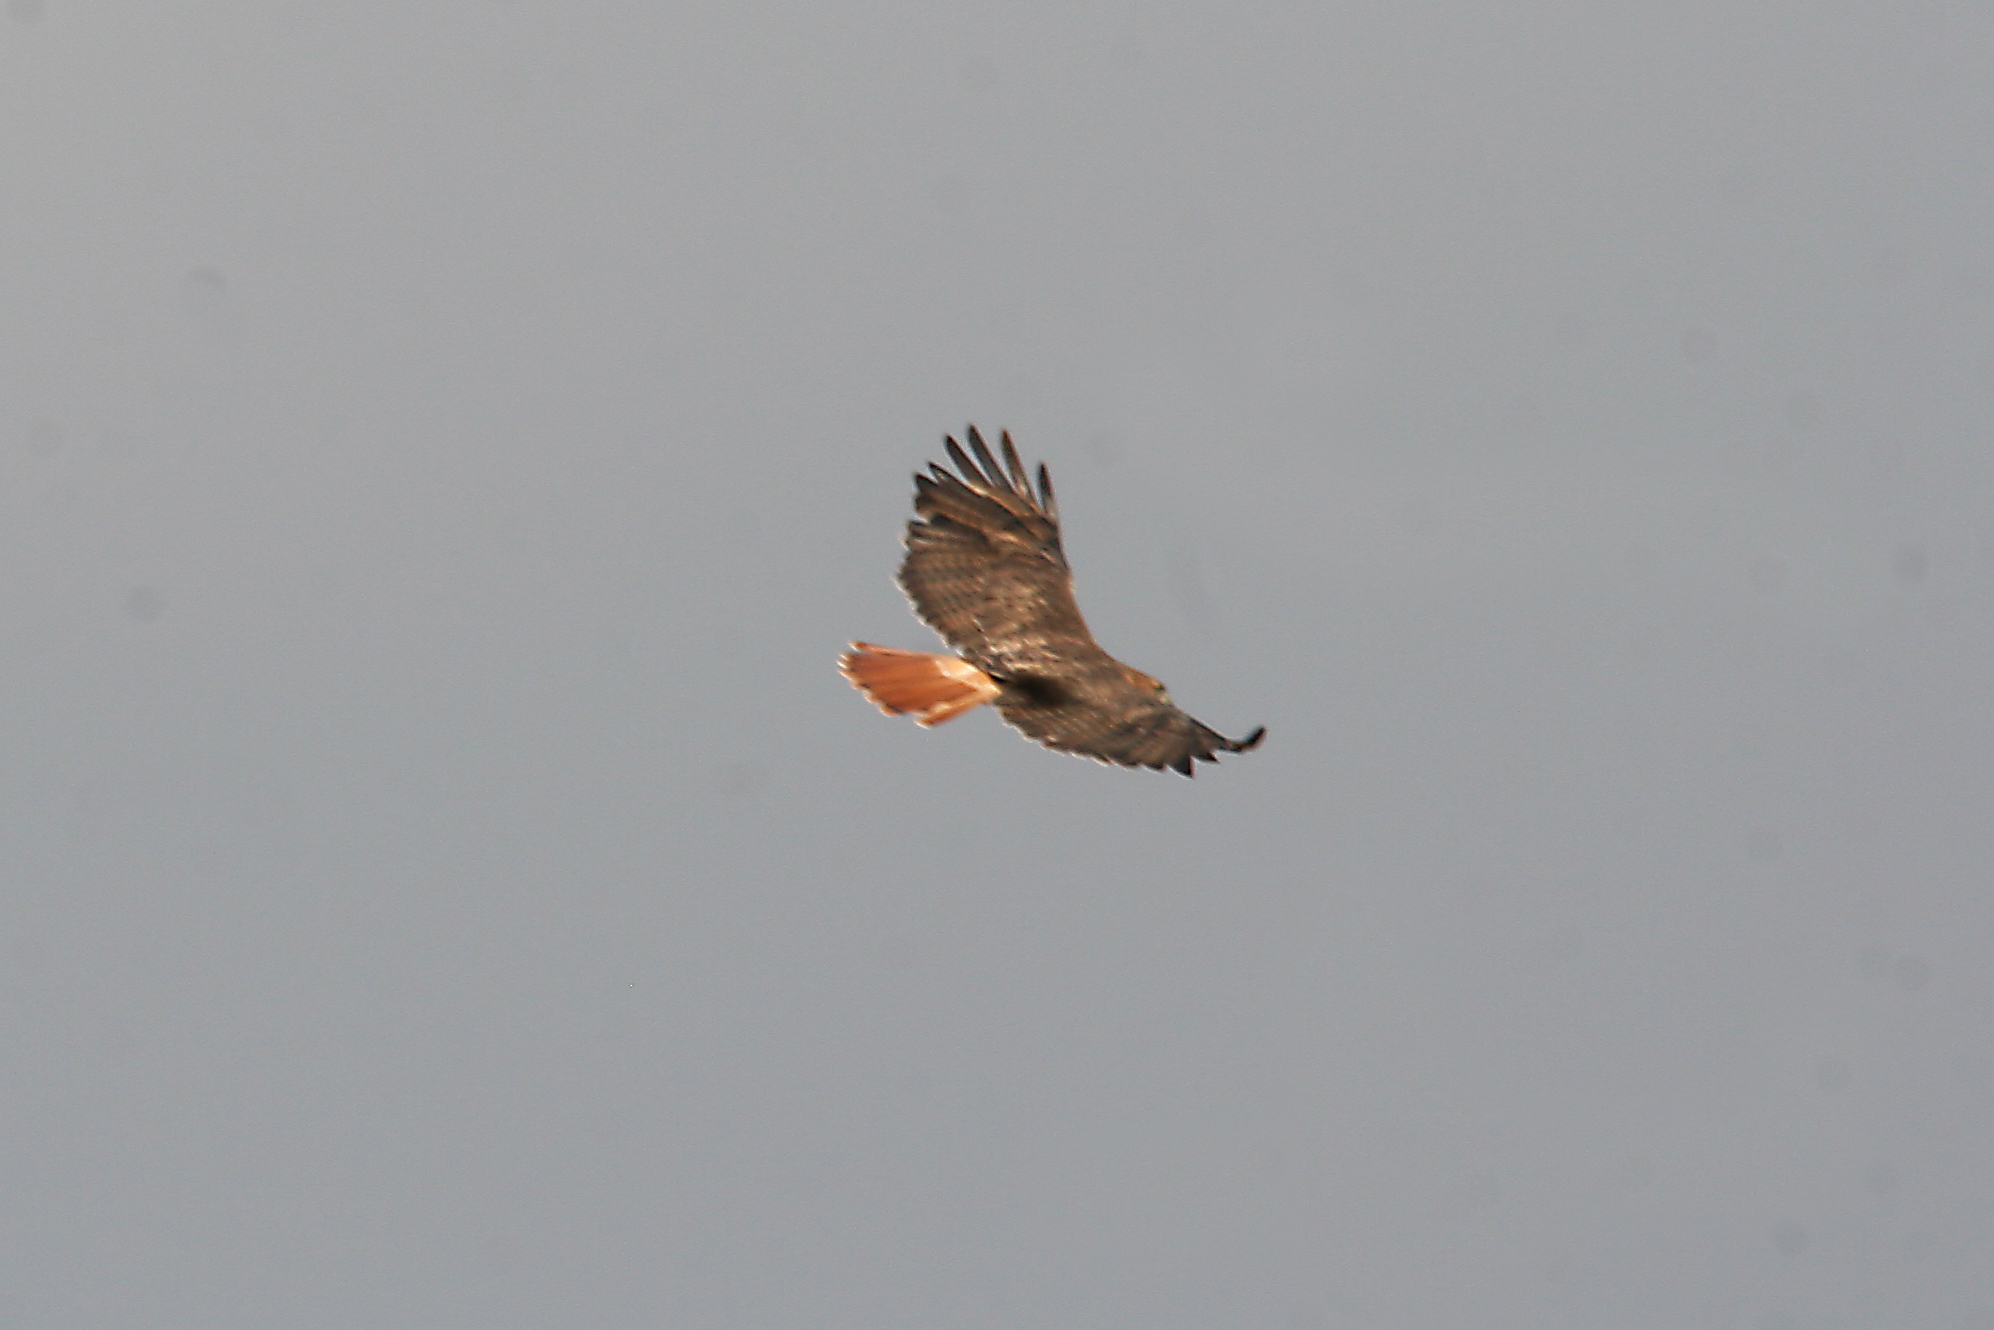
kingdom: Animalia
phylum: Chordata
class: Aves
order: Accipitriformes
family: Accipitridae
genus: Buteo
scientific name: Buteo jamaicensis
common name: Red-tailed hawk
